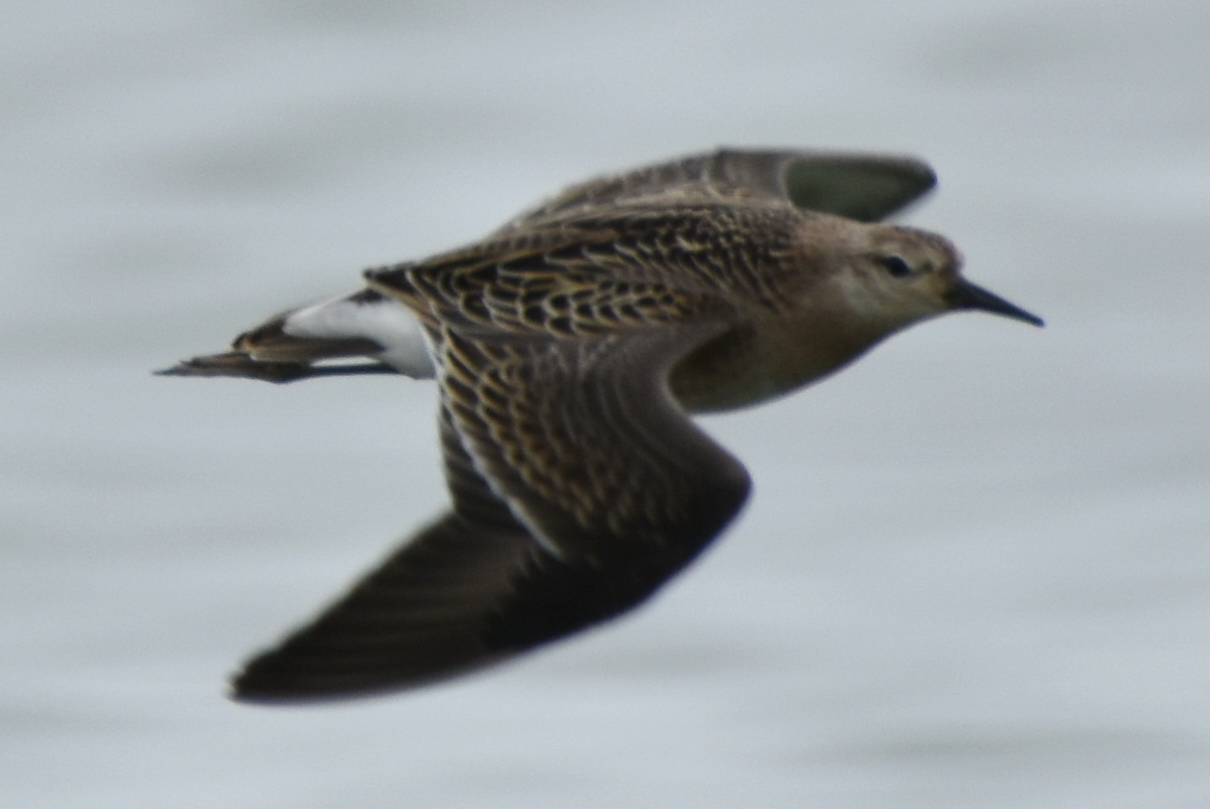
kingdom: Animalia
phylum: Chordata
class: Aves
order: Charadriiformes
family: Scolopacidae
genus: Calidris
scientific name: Calidris pugnax
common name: Ruff
